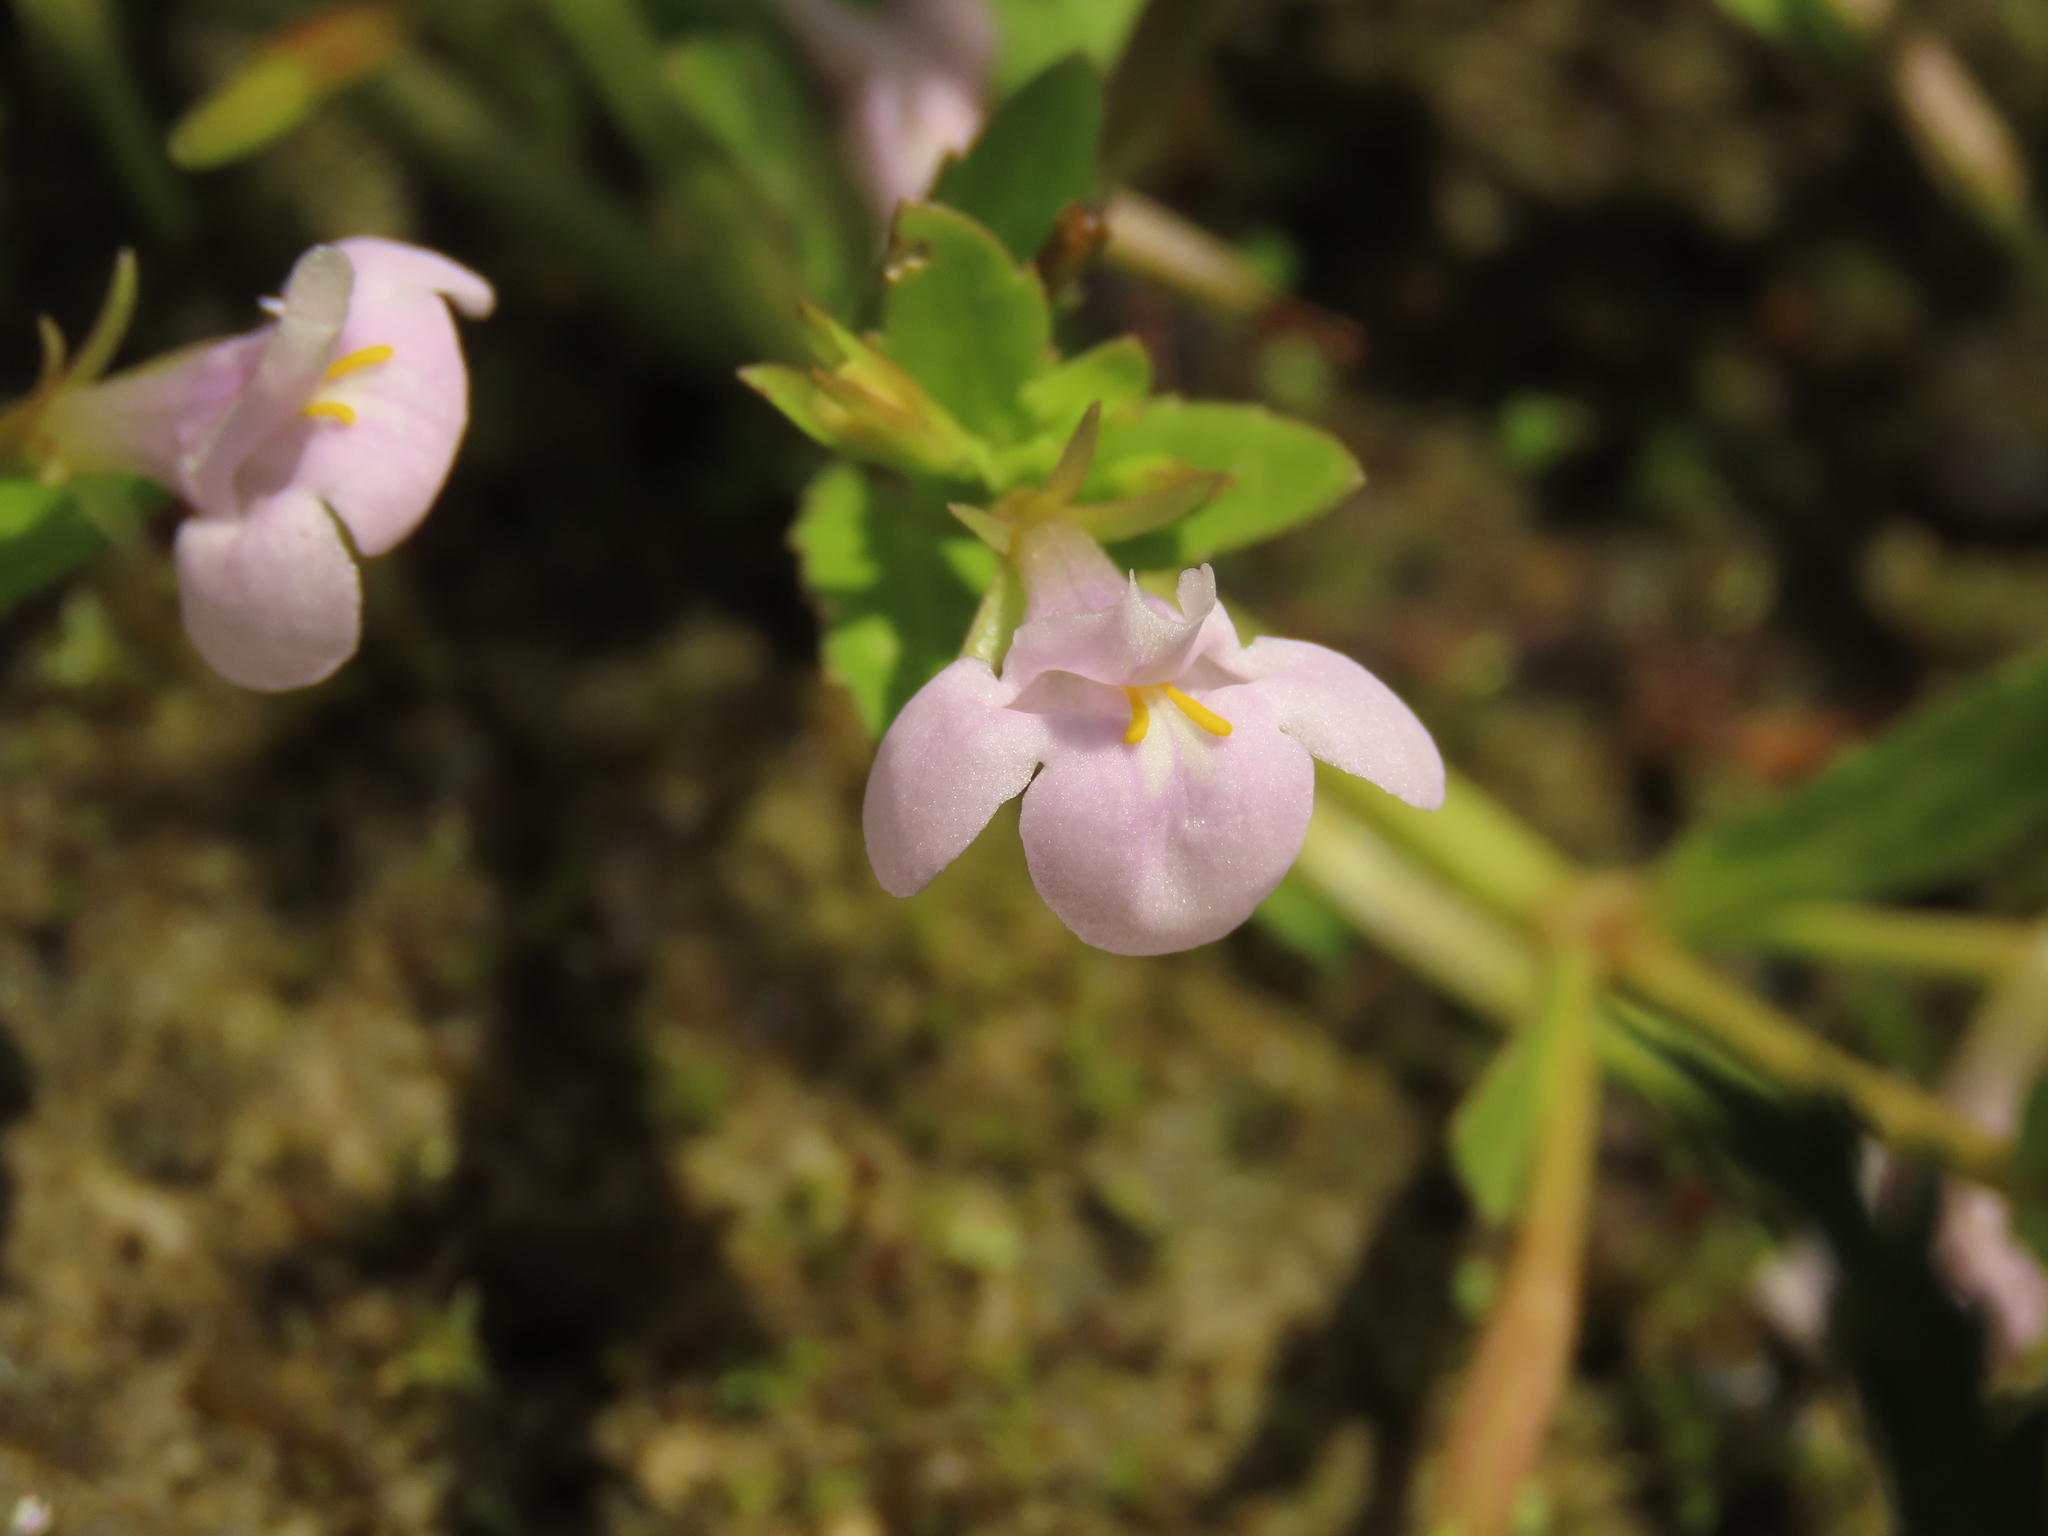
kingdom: Plantae
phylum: Tracheophyta
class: Magnoliopsida
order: Lamiales
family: Linderniaceae
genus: Bonnaya
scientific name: Bonnaya antipoda
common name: Sparrow false pimpernel
